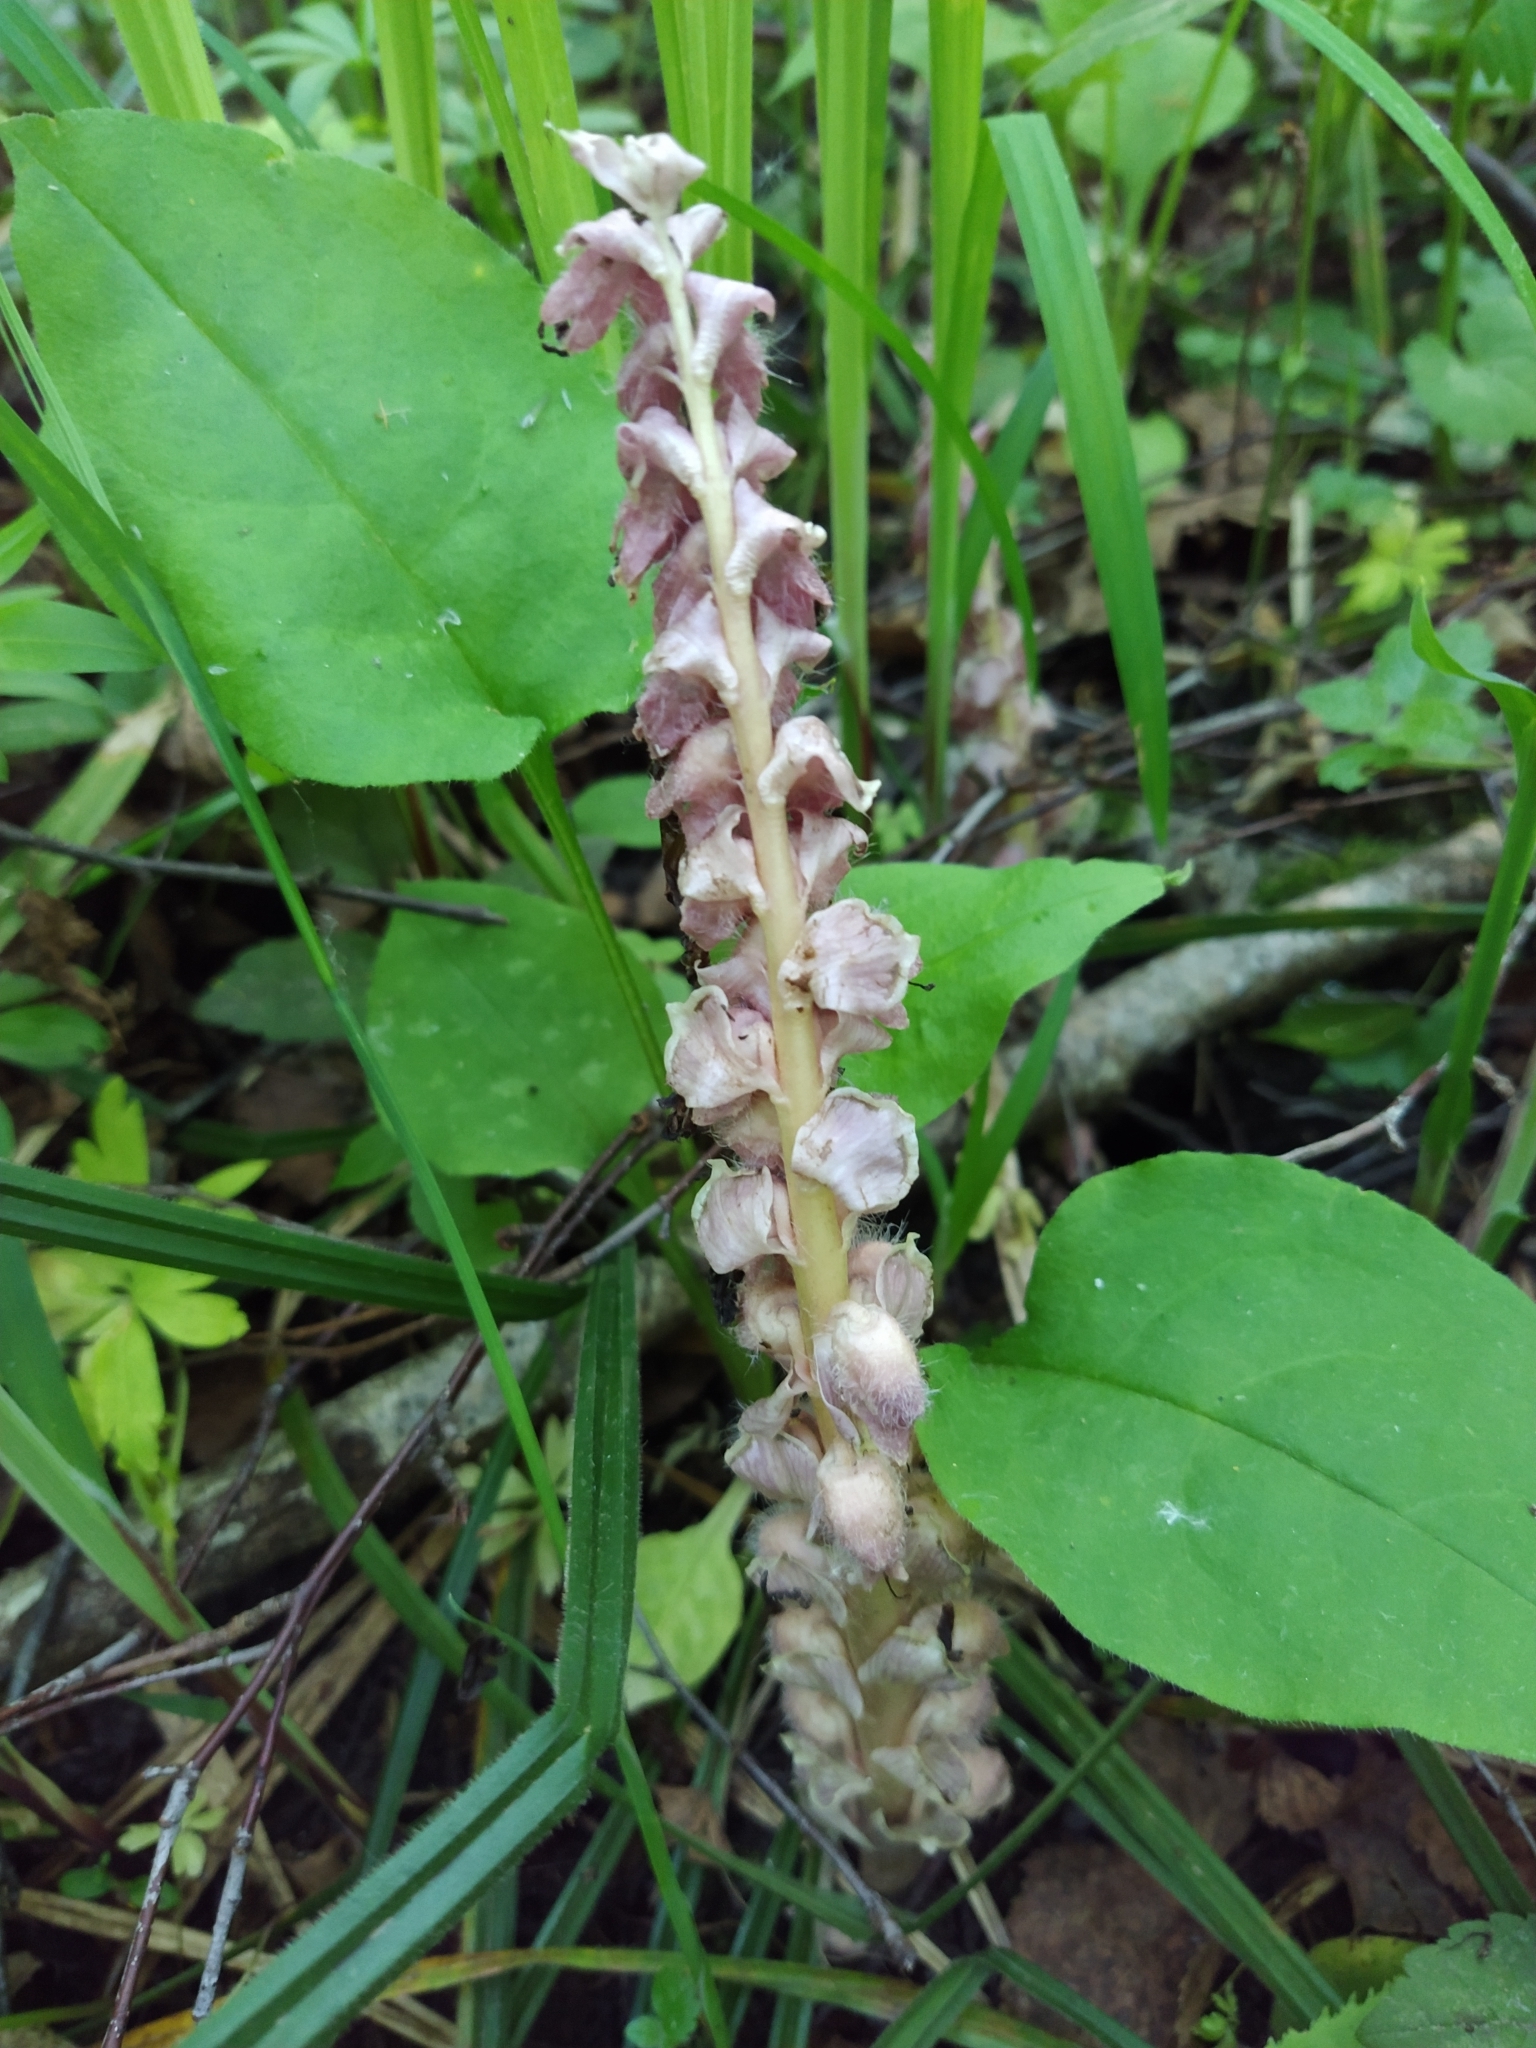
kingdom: Plantae
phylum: Tracheophyta
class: Magnoliopsida
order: Lamiales
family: Orobanchaceae
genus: Lathraea
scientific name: Lathraea squamaria
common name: Toothwort
